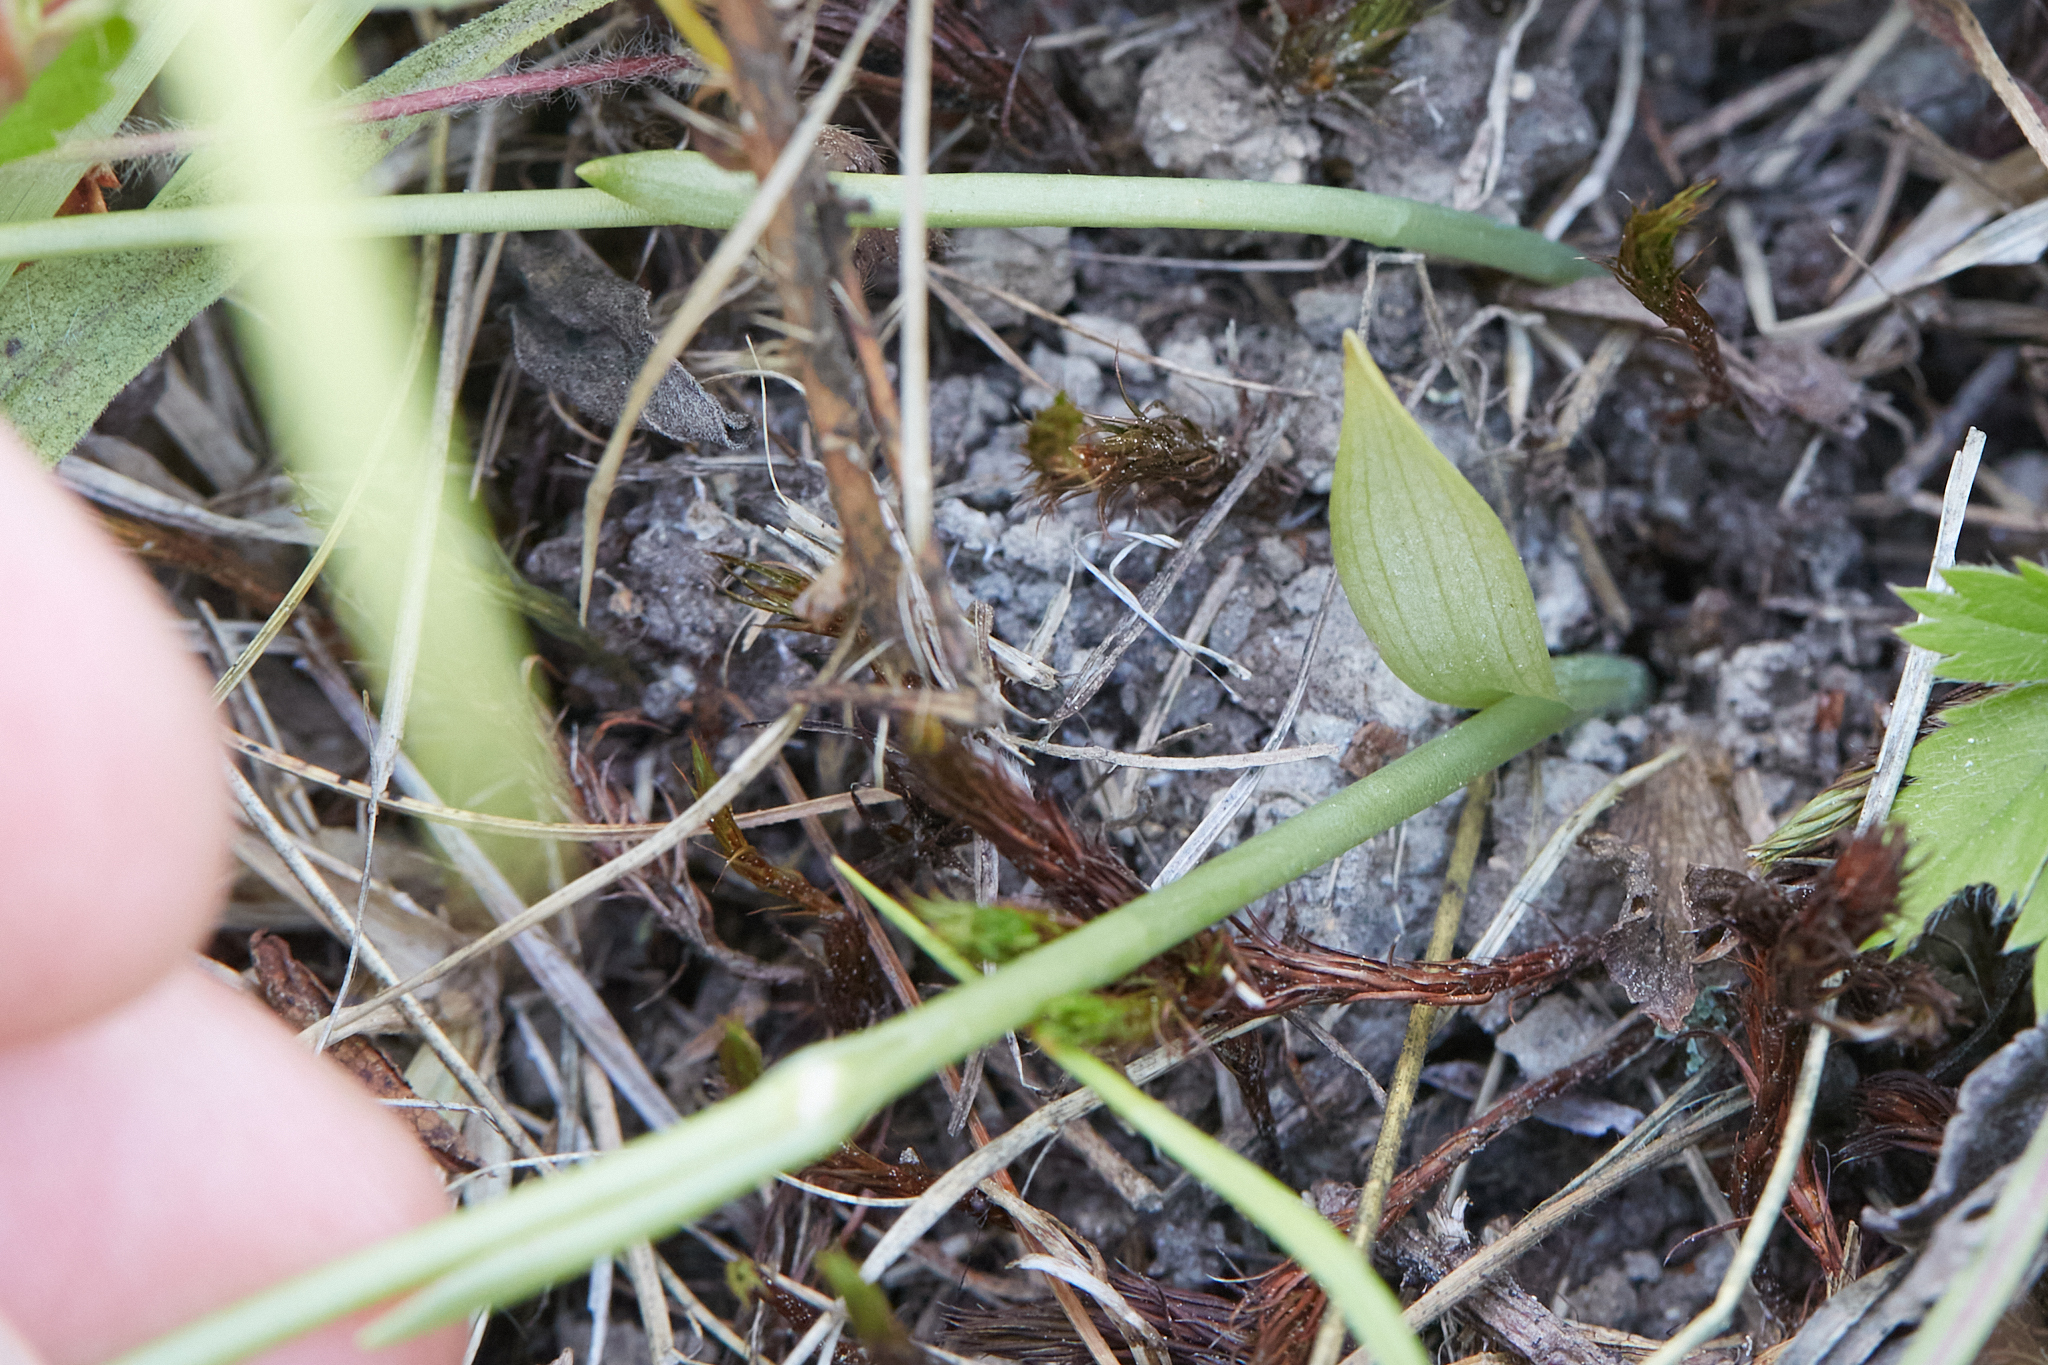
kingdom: Plantae
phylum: Tracheophyta
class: Liliopsida
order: Asparagales
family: Orchidaceae
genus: Spiranthes
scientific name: Spiranthes lacera
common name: Northern slender ladies'-tresses
